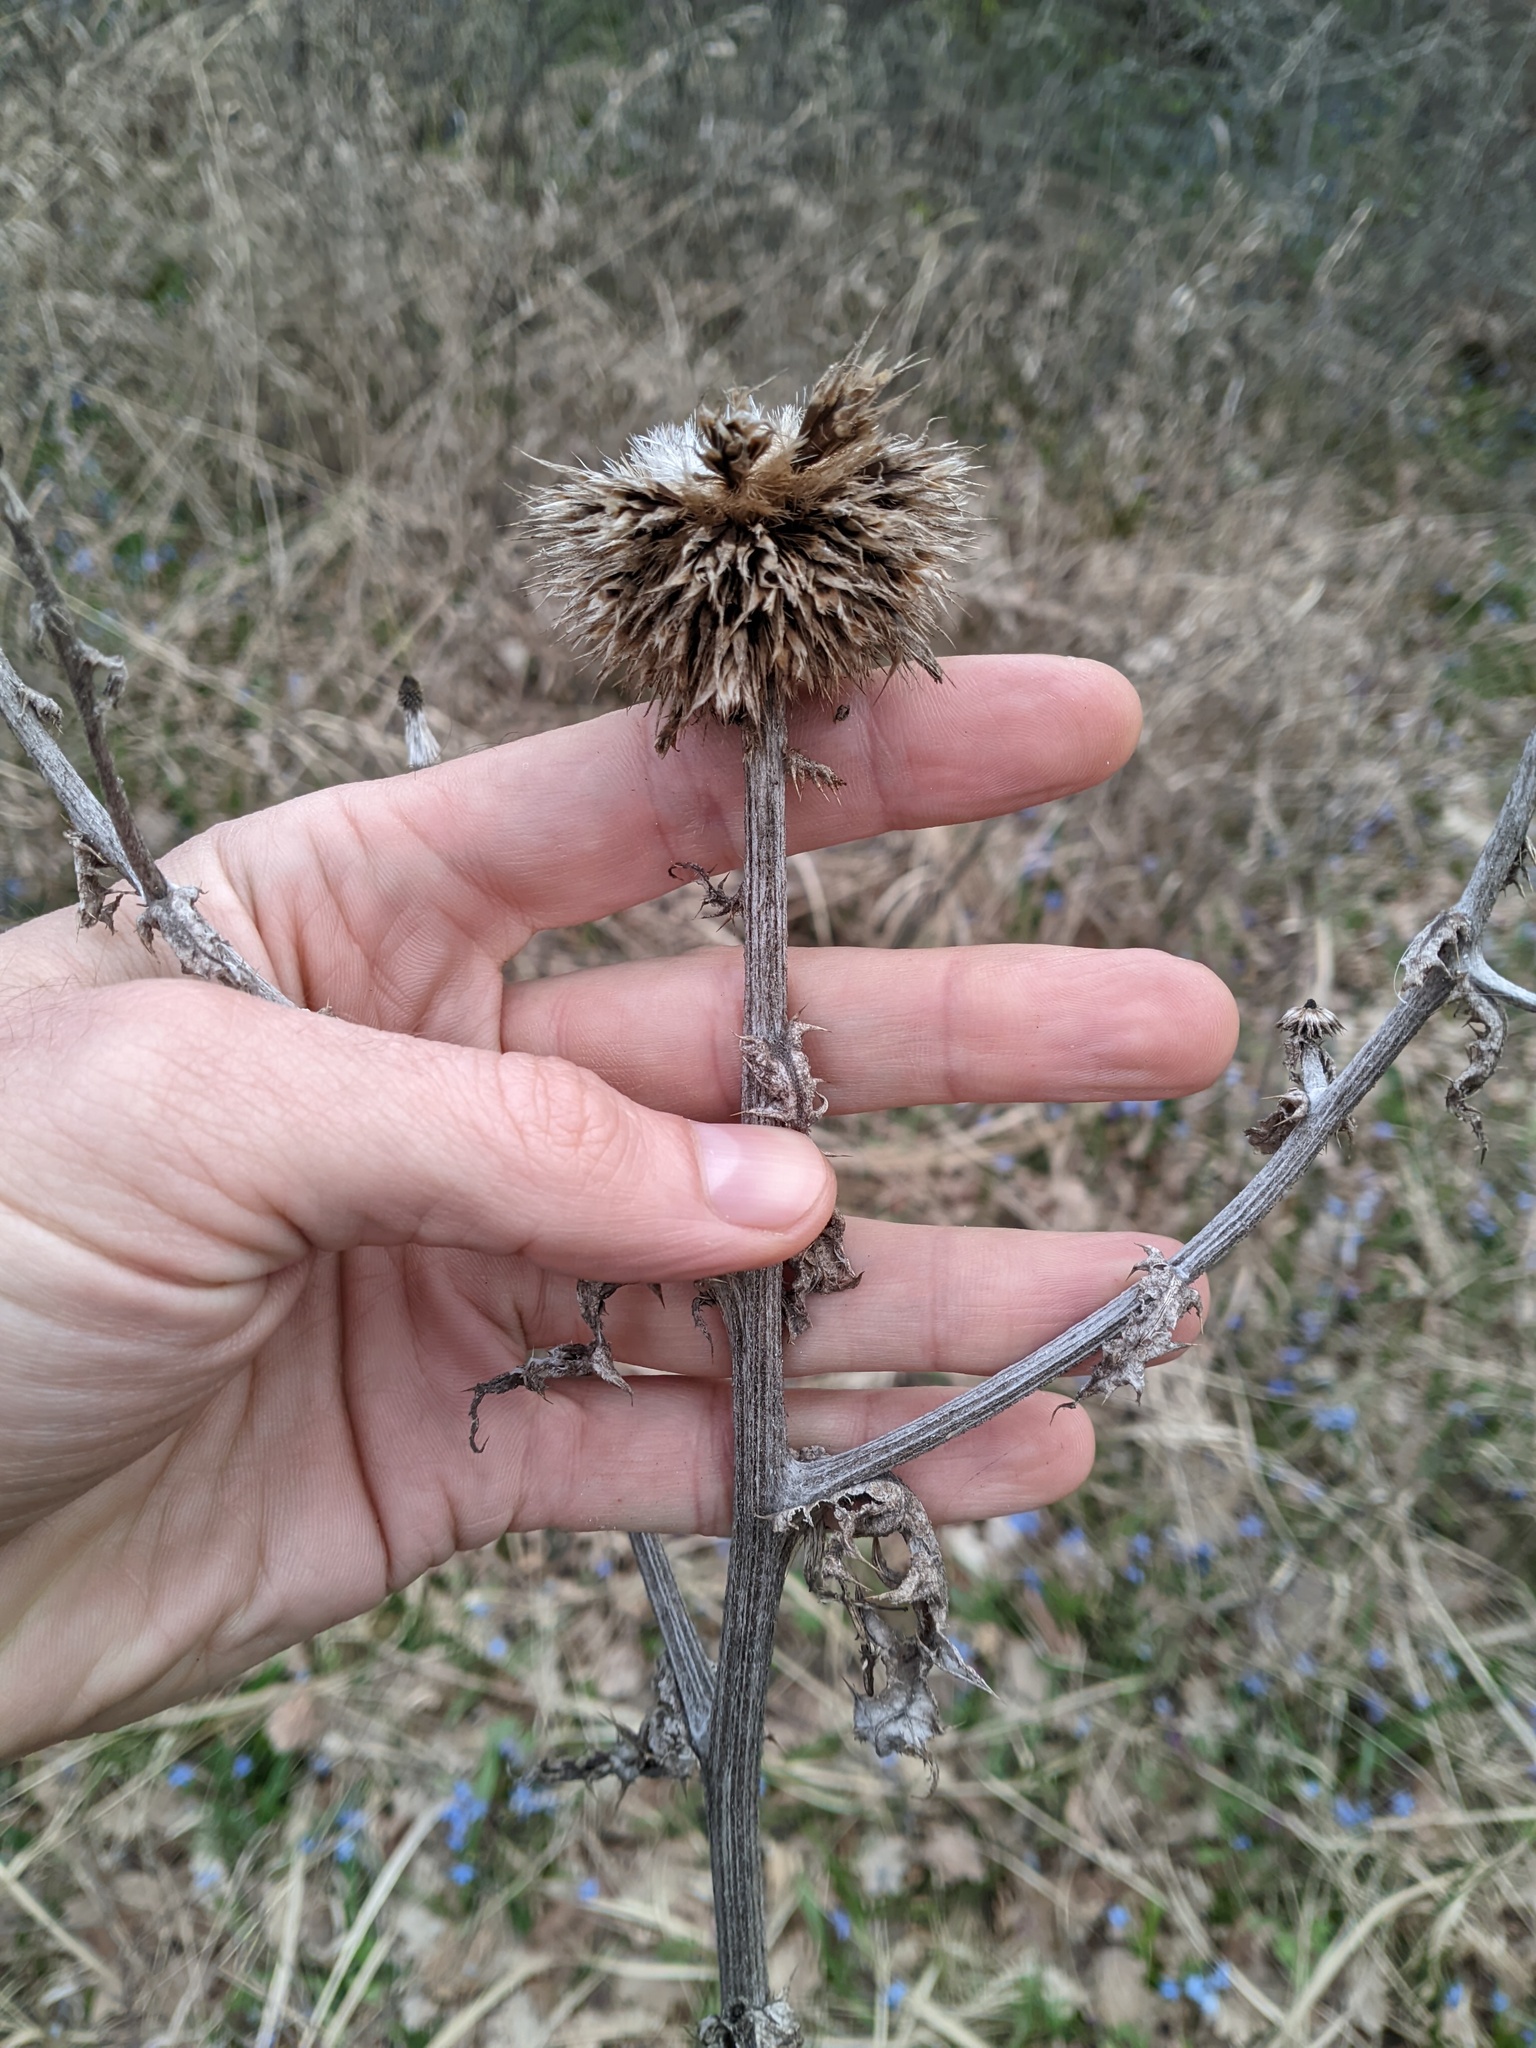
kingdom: Plantae
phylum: Tracheophyta
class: Magnoliopsida
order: Asterales
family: Asteraceae
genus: Echinops
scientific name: Echinops sphaerocephalus
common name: Glandular globe-thistle
